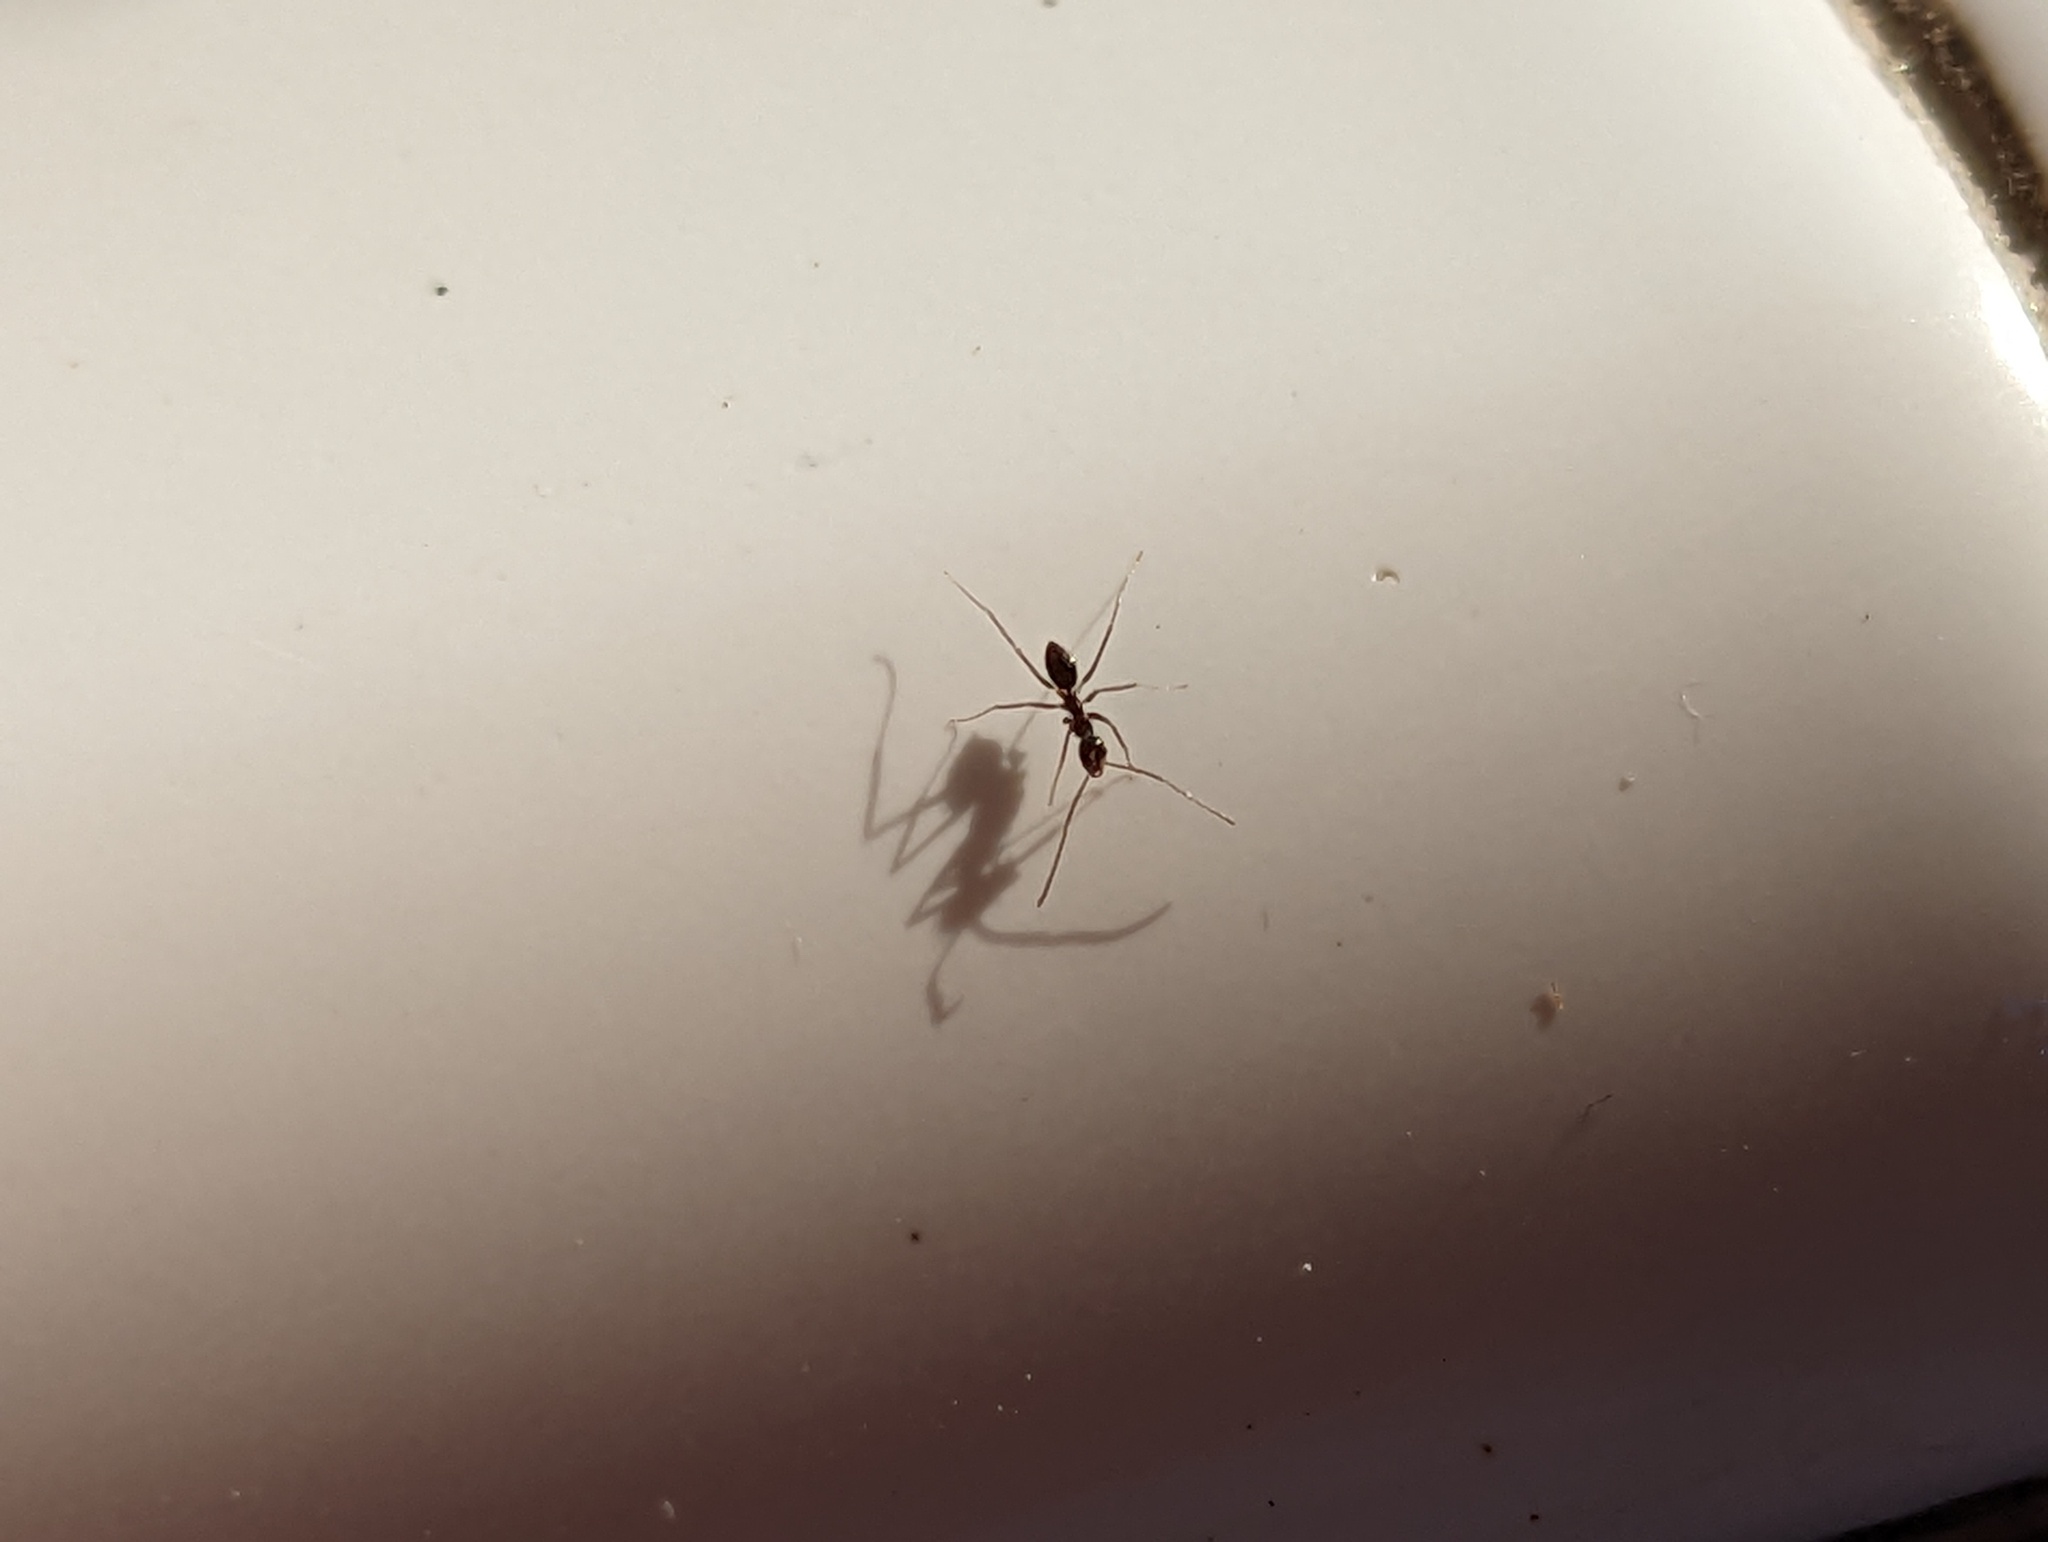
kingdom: Animalia
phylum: Arthropoda
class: Insecta
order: Hymenoptera
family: Formicidae
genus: Paratrechina
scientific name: Paratrechina longicornis
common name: Longhorned crazy ant
